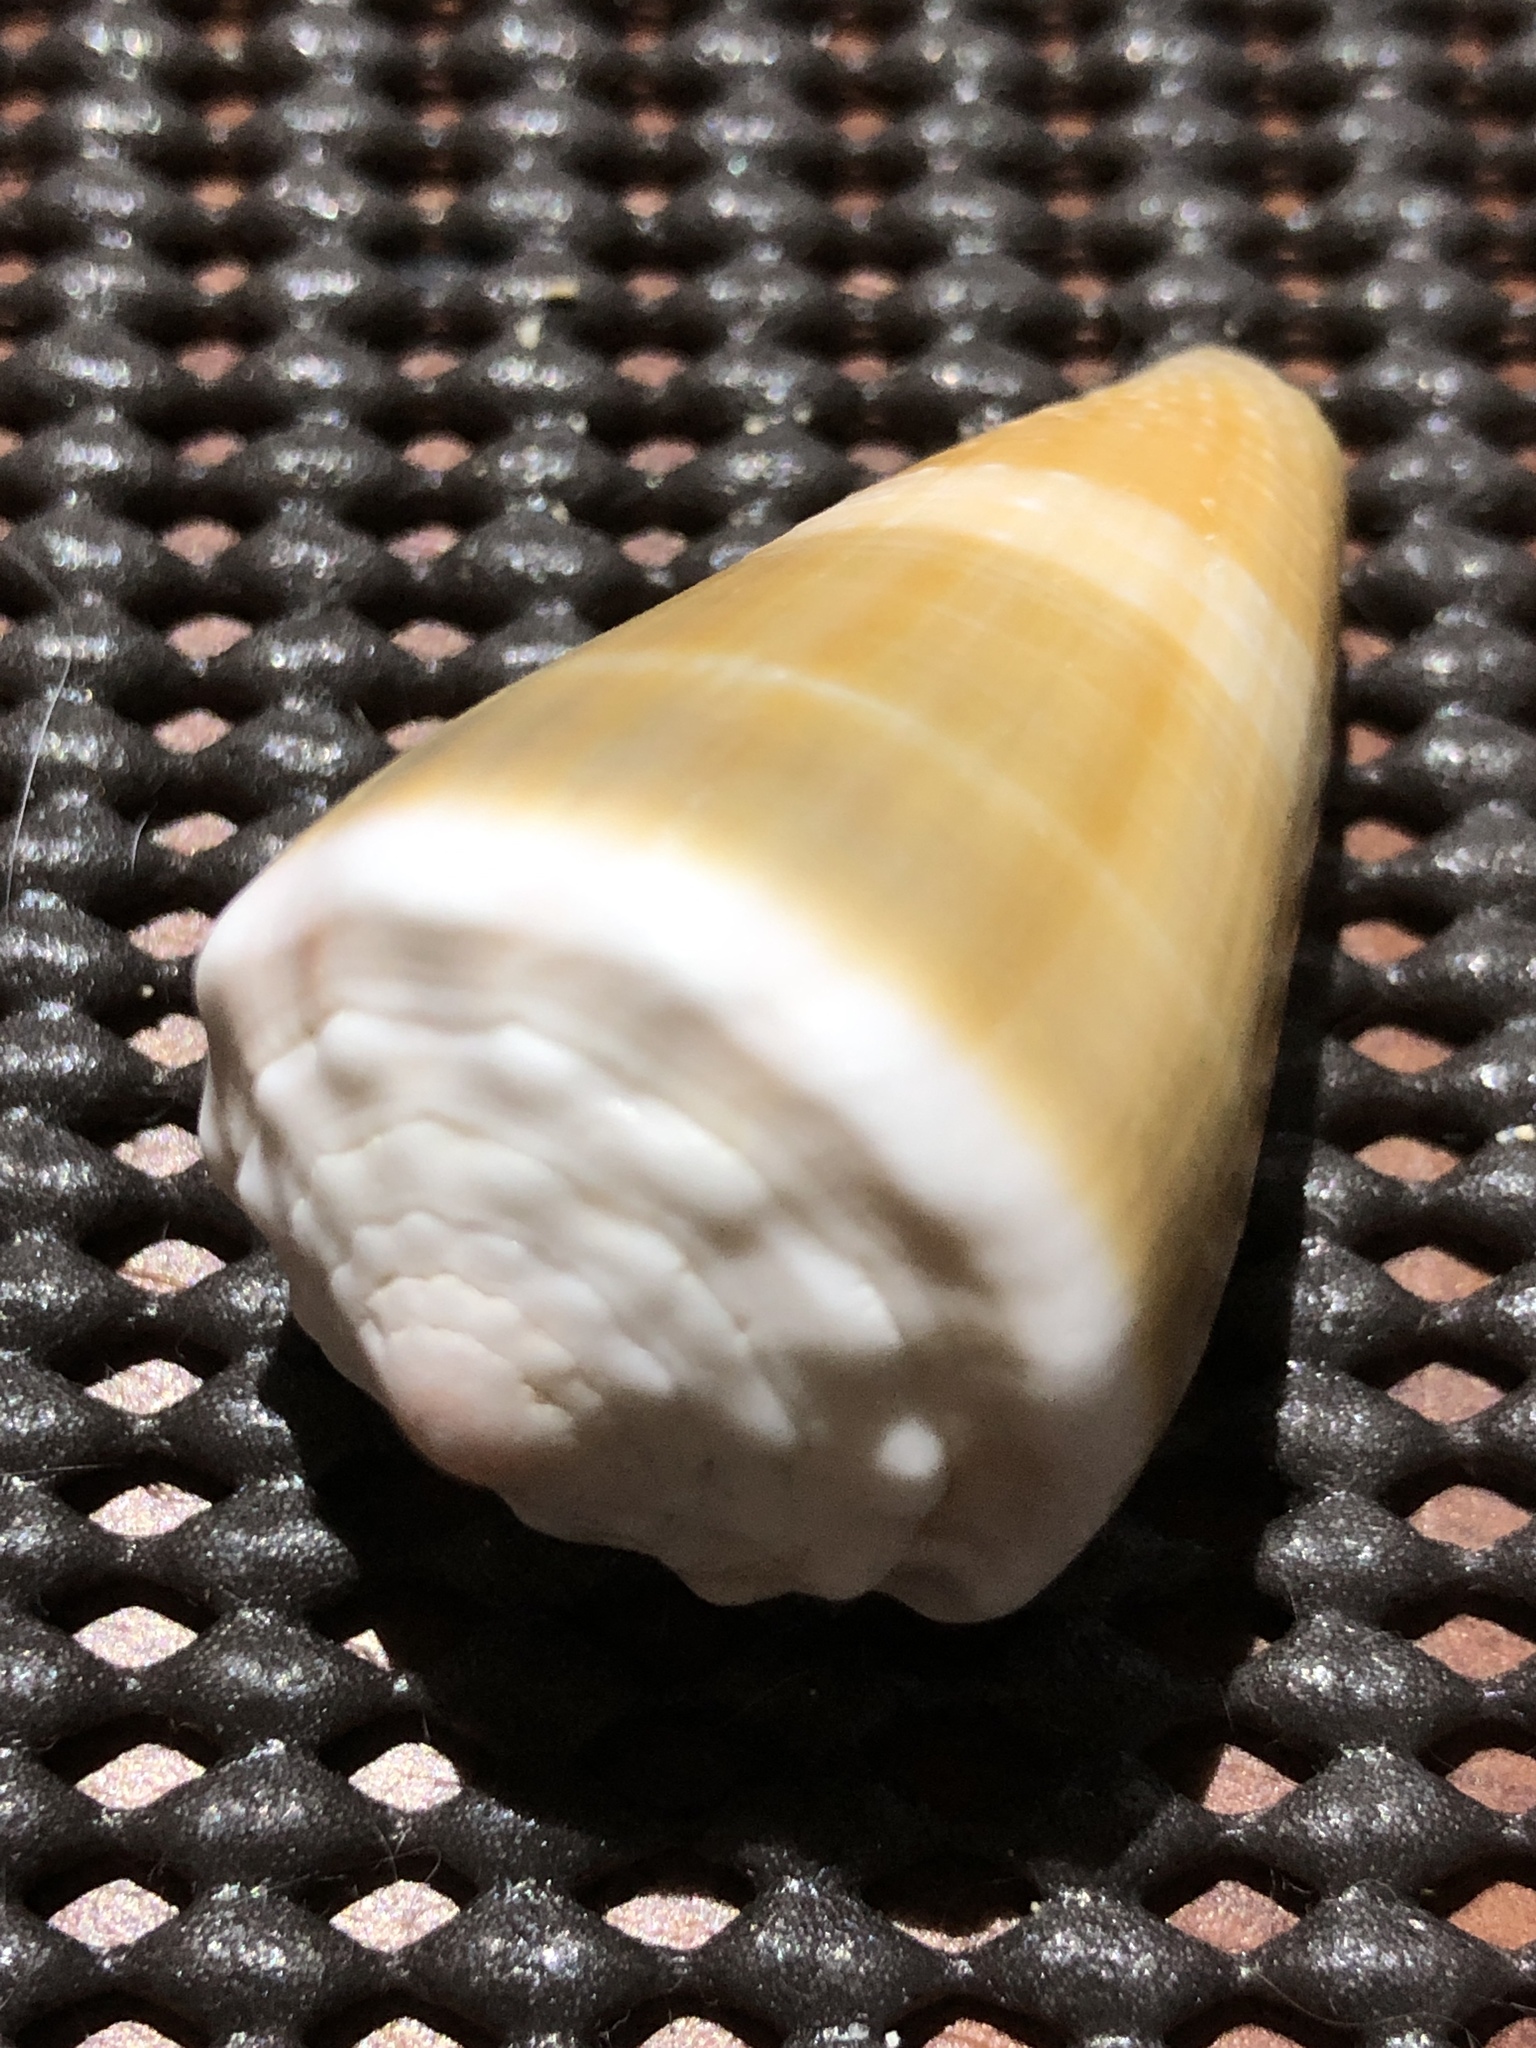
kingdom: Animalia
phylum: Mollusca
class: Gastropoda
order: Neogastropoda
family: Conidae
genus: Conus
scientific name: Conus lividus
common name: Livid cone
